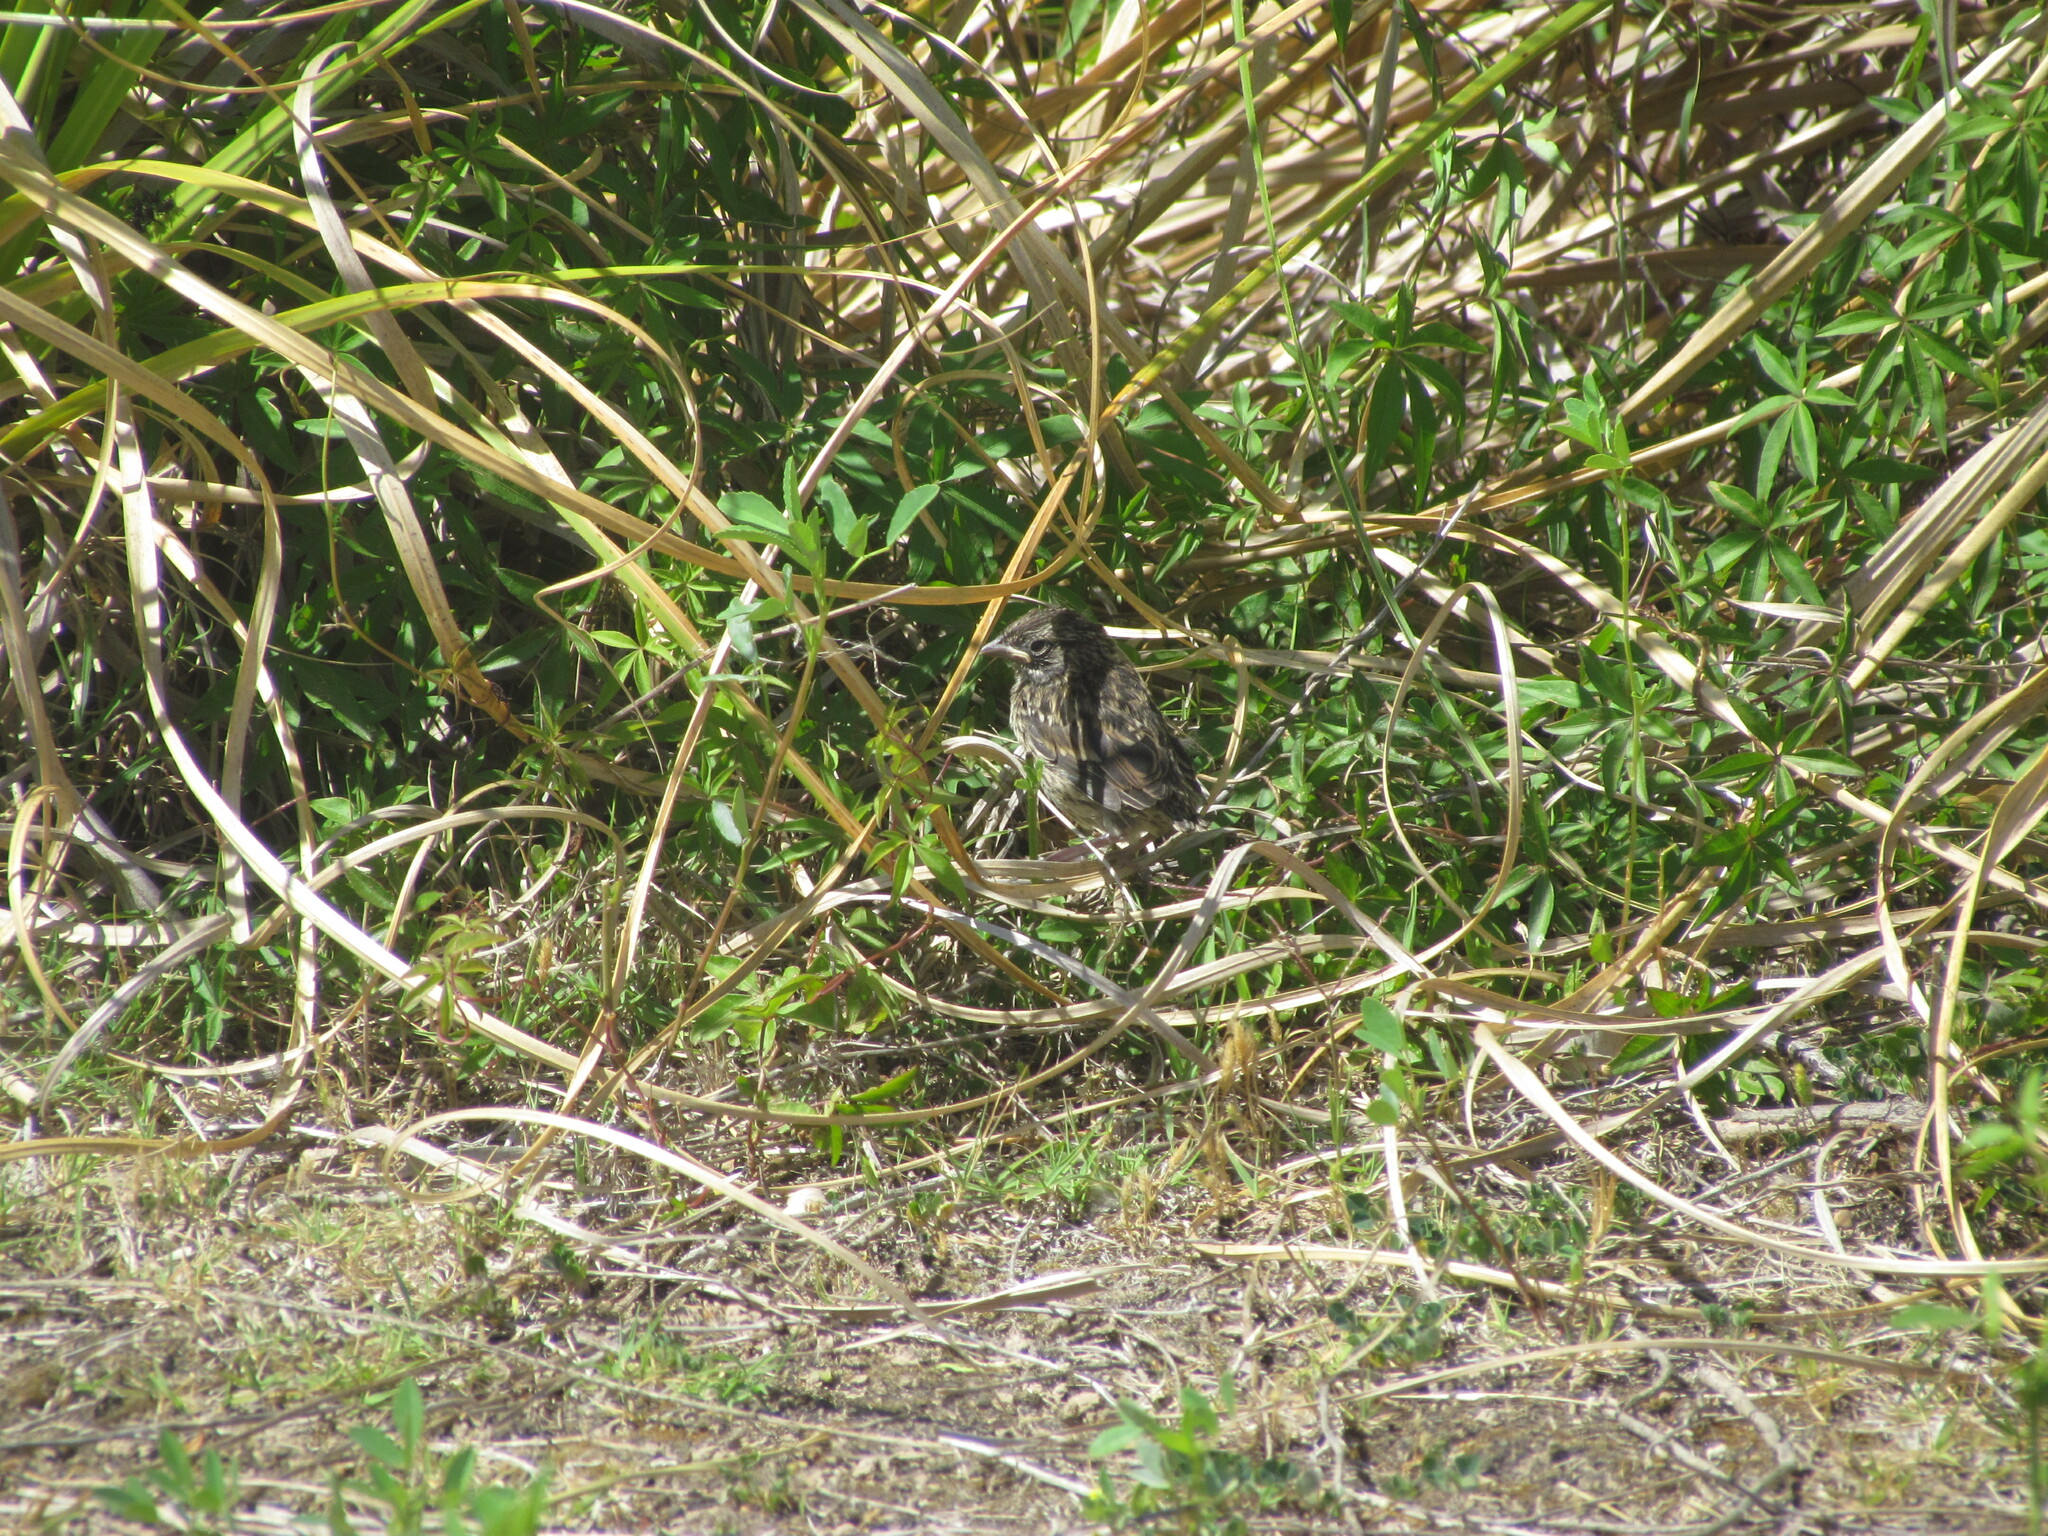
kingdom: Animalia
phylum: Chordata
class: Aves
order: Passeriformes
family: Passerellidae
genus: Zonotrichia
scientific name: Zonotrichia capensis
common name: Rufous-collared sparrow
